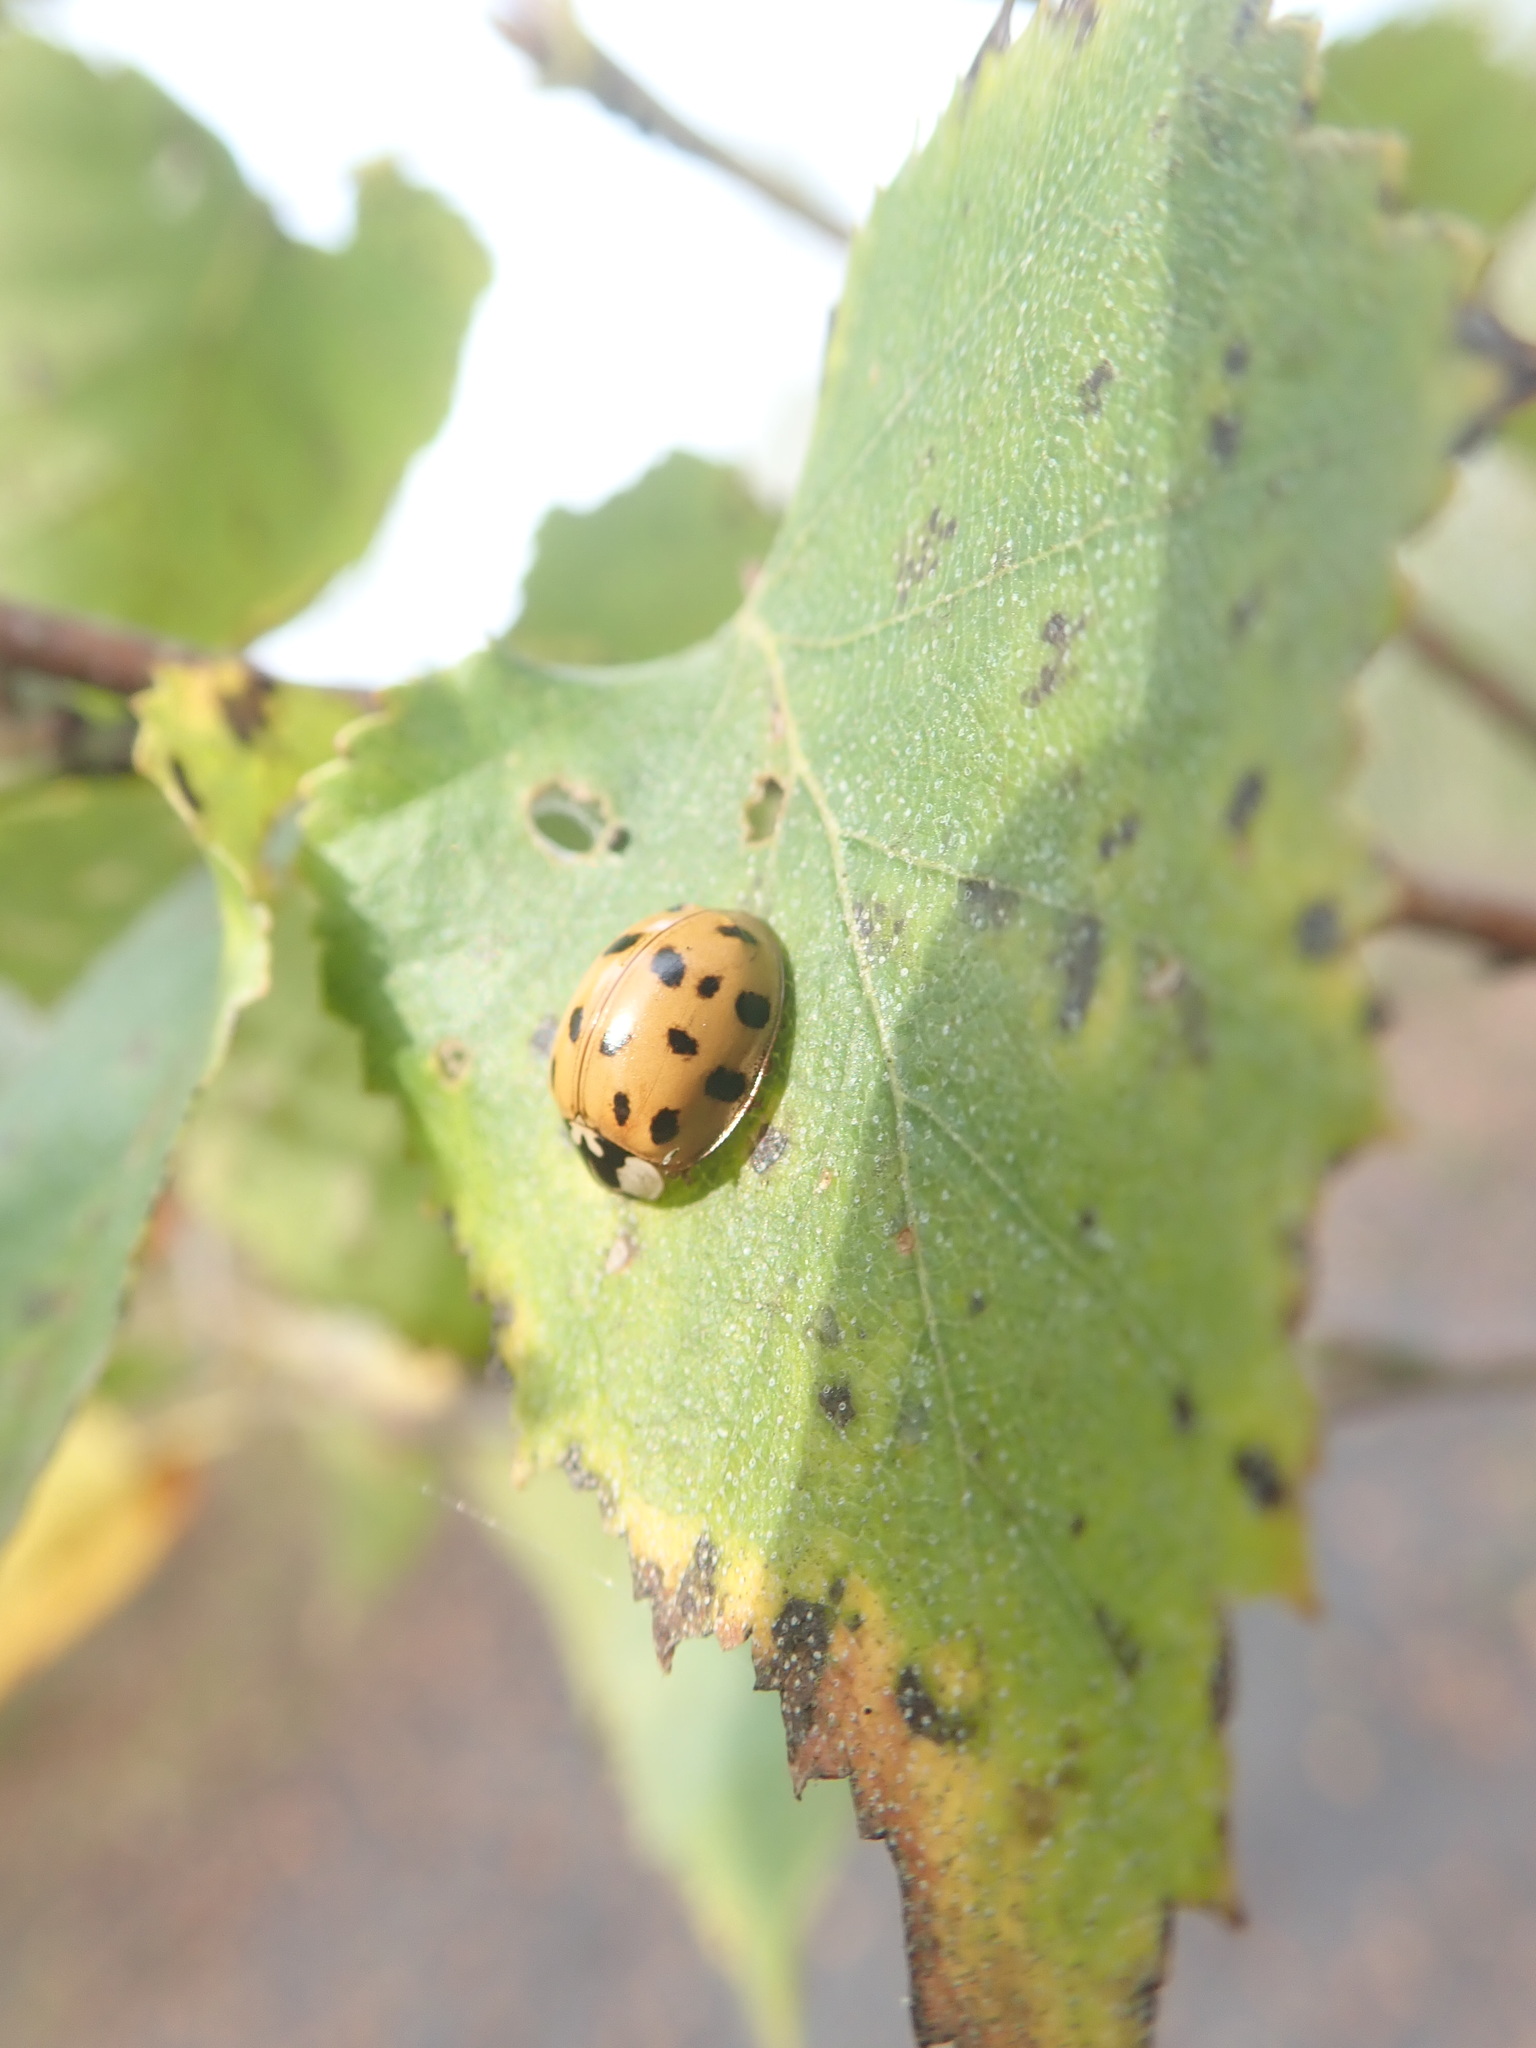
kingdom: Animalia
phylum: Arthropoda
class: Insecta
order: Coleoptera
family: Coccinellidae
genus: Harmonia
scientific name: Harmonia axyridis
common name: Harlequin ladybird
